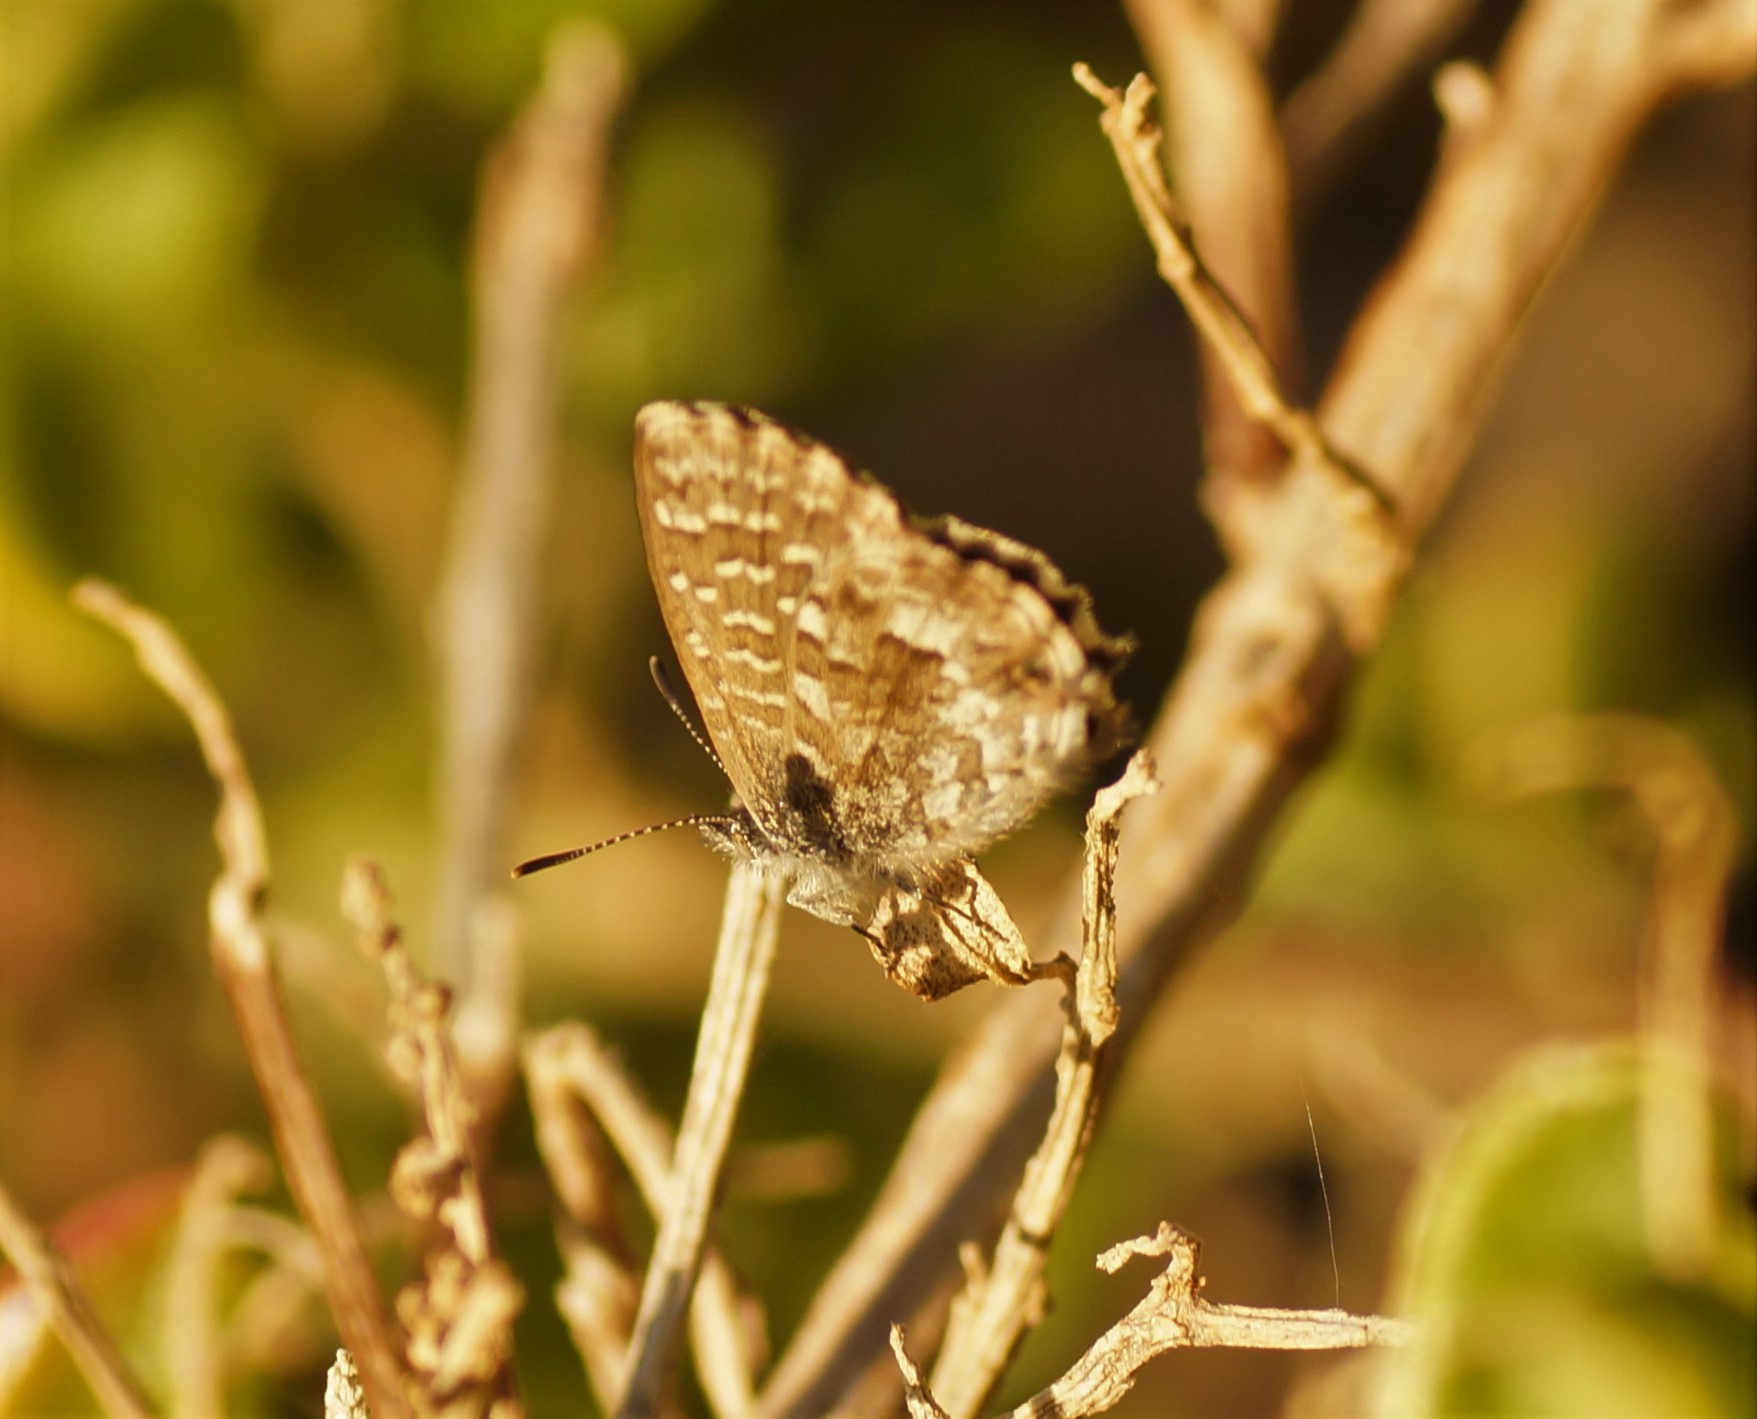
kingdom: Animalia
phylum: Arthropoda
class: Insecta
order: Lepidoptera
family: Lycaenidae
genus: Theclinesthes
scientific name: Theclinesthes serpentata
